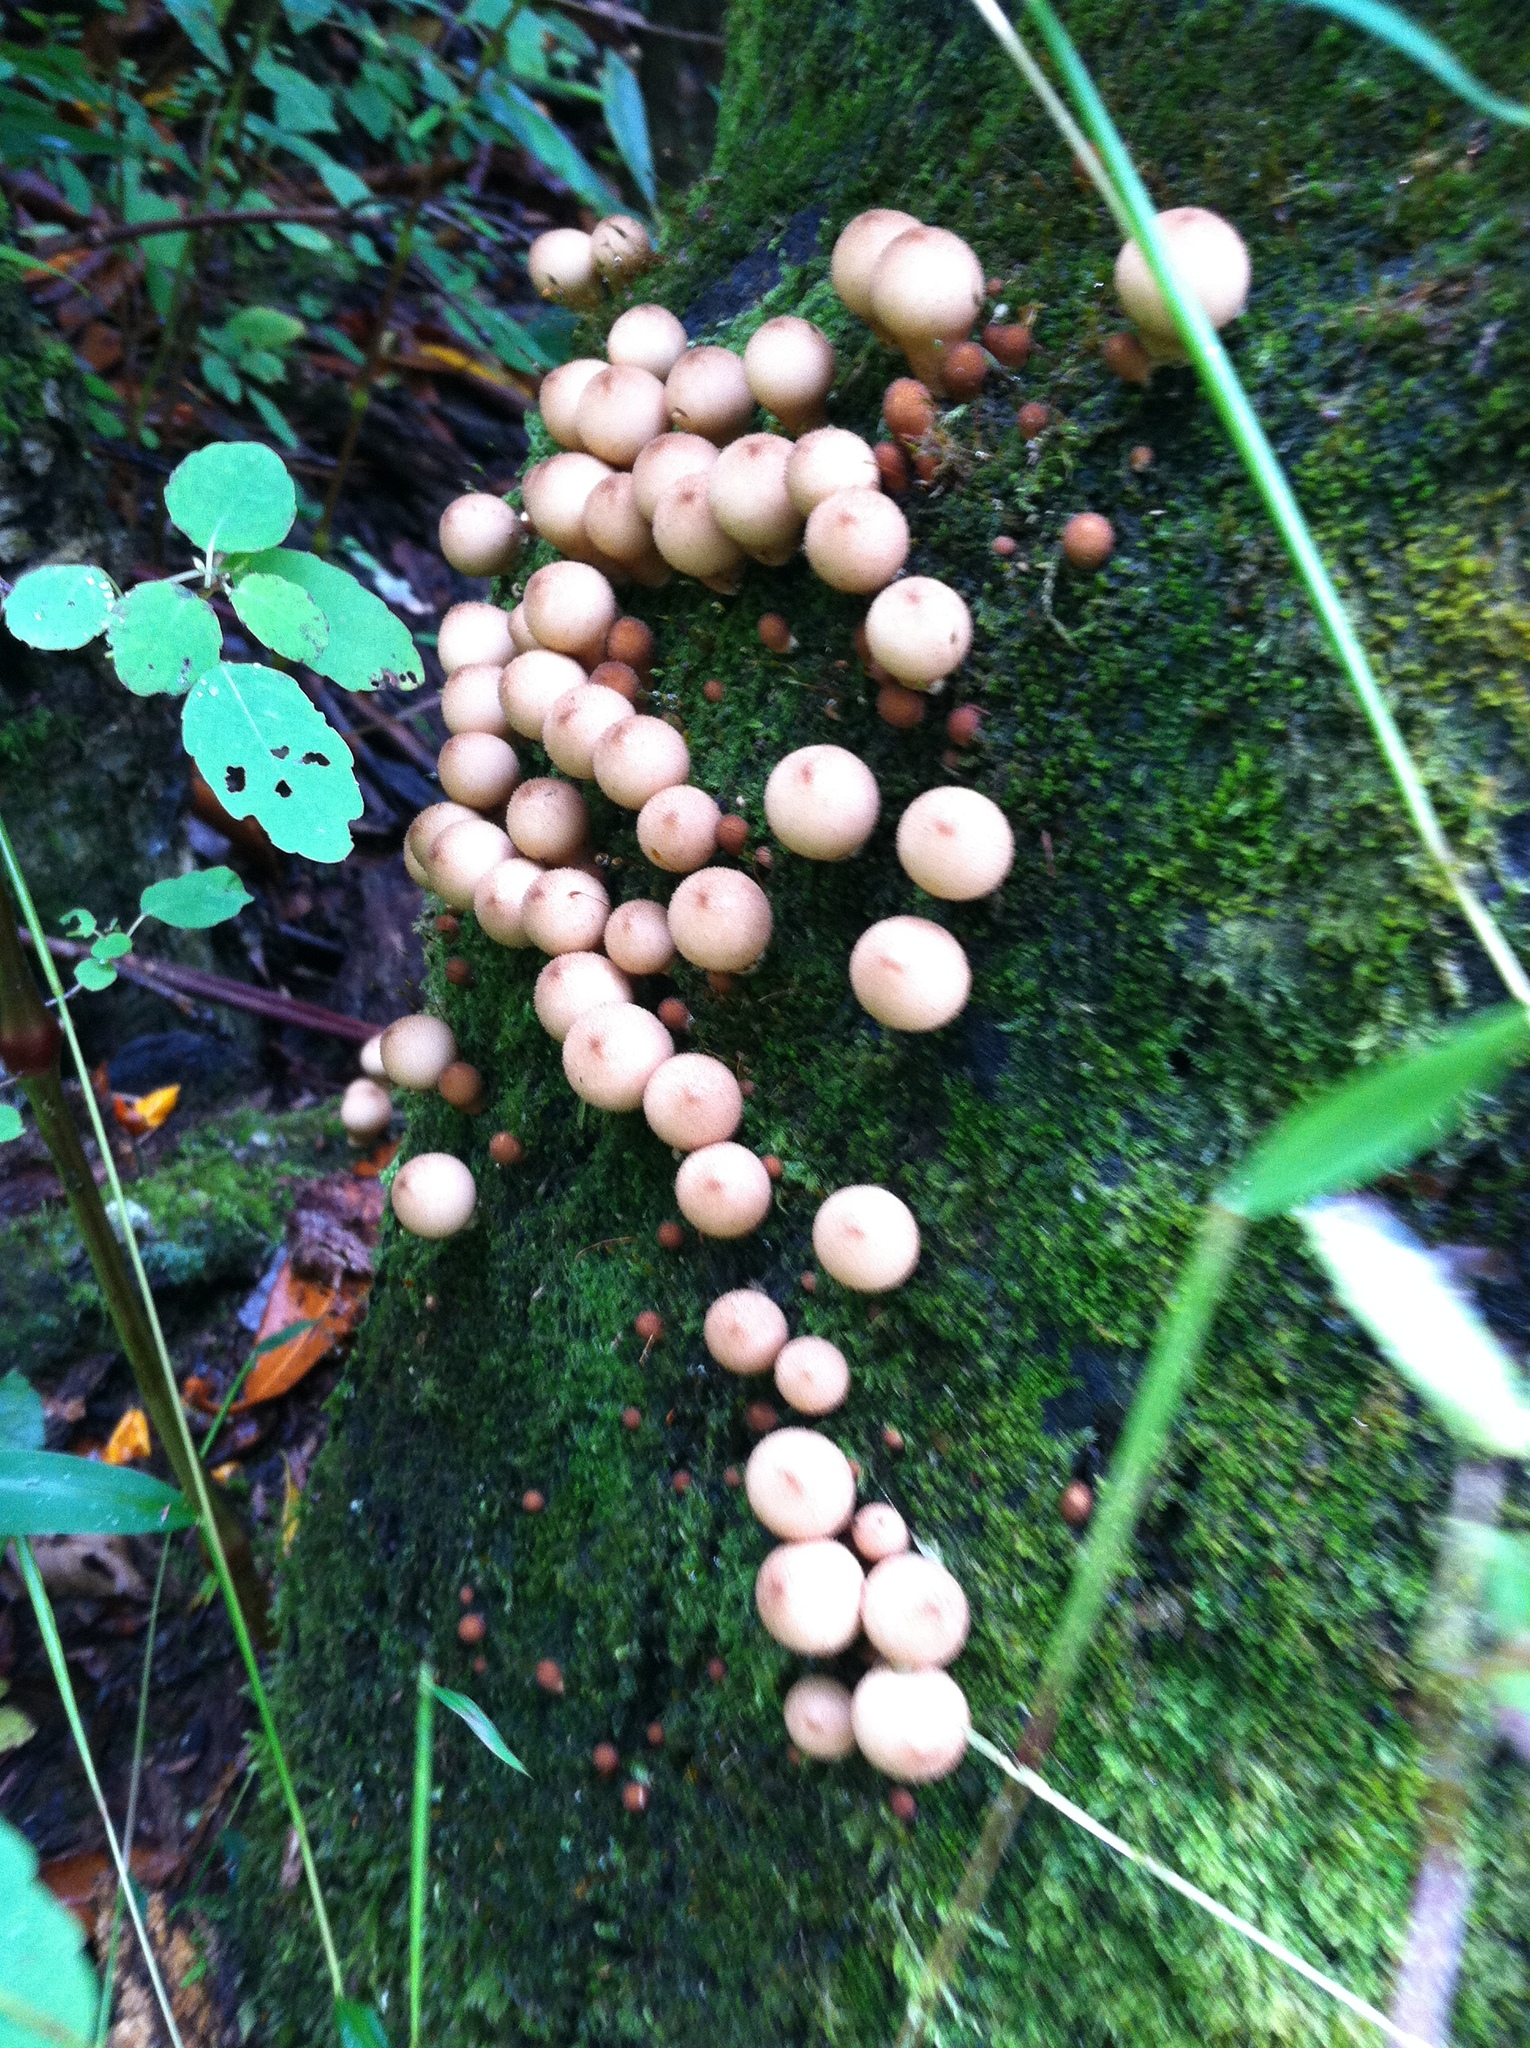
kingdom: Fungi
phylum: Basidiomycota
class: Agaricomycetes
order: Agaricales
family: Lycoperdaceae
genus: Apioperdon
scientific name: Apioperdon pyriforme
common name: Pear-shaped puffball
